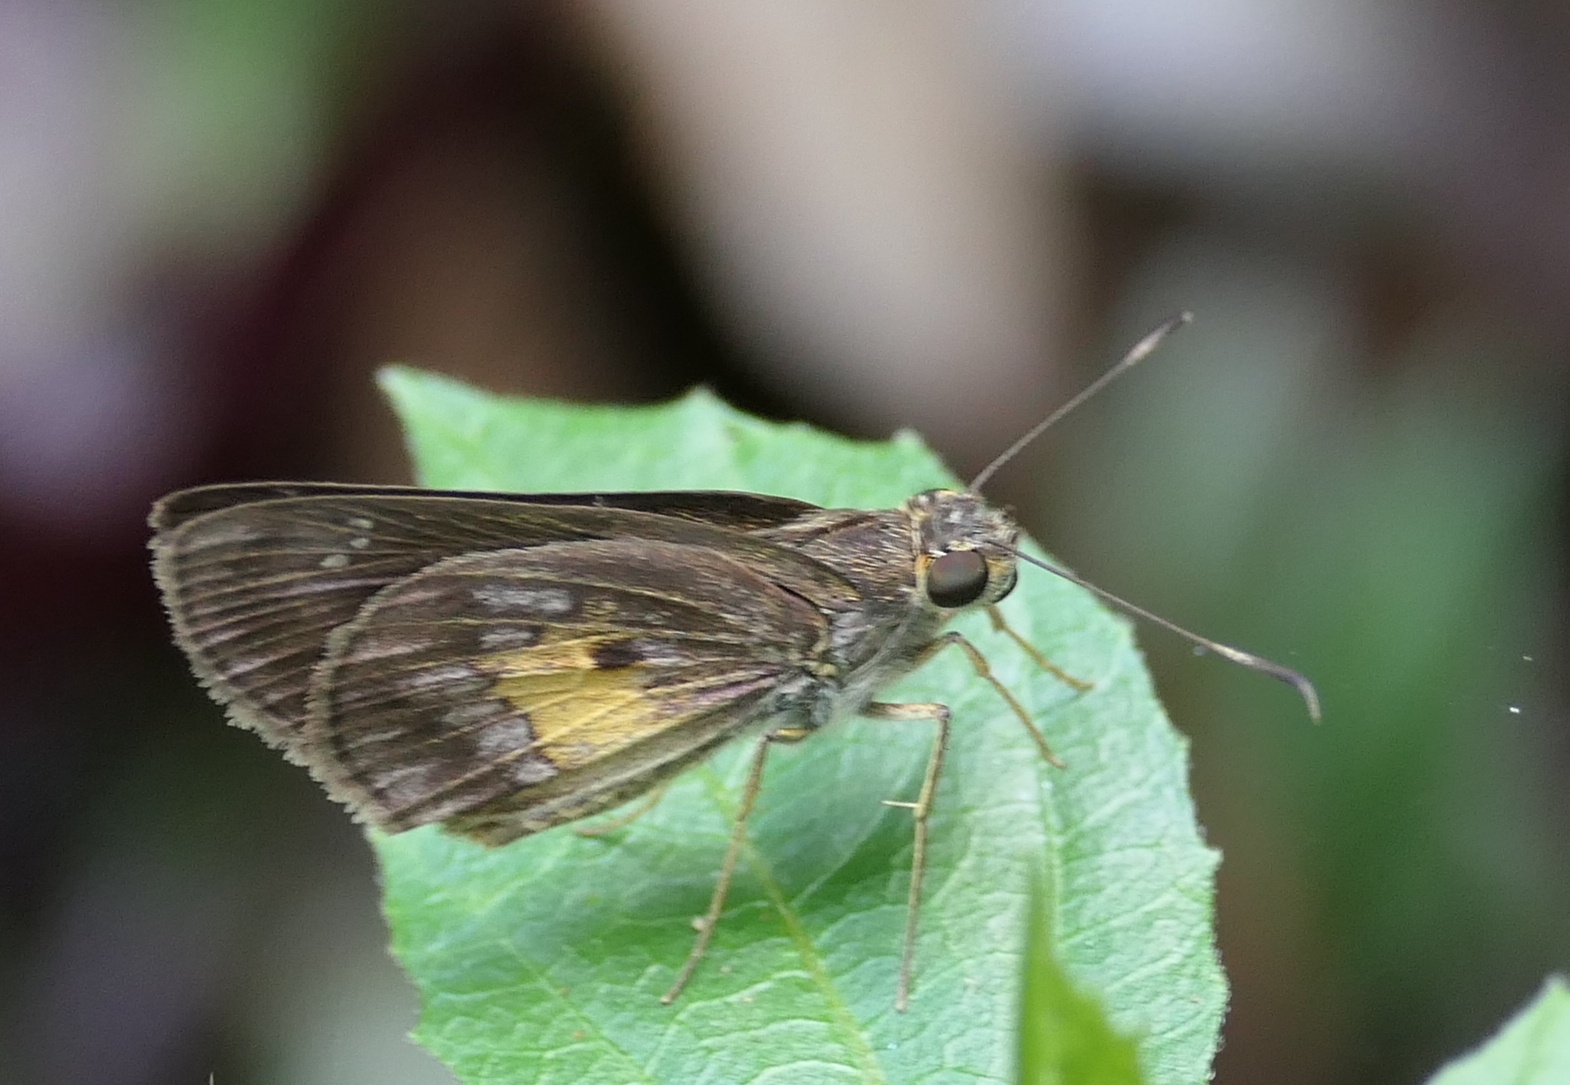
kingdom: Animalia
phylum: Arthropoda
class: Insecta
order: Lepidoptera
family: Hesperiidae
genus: Phanis
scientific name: Phanis aletes
